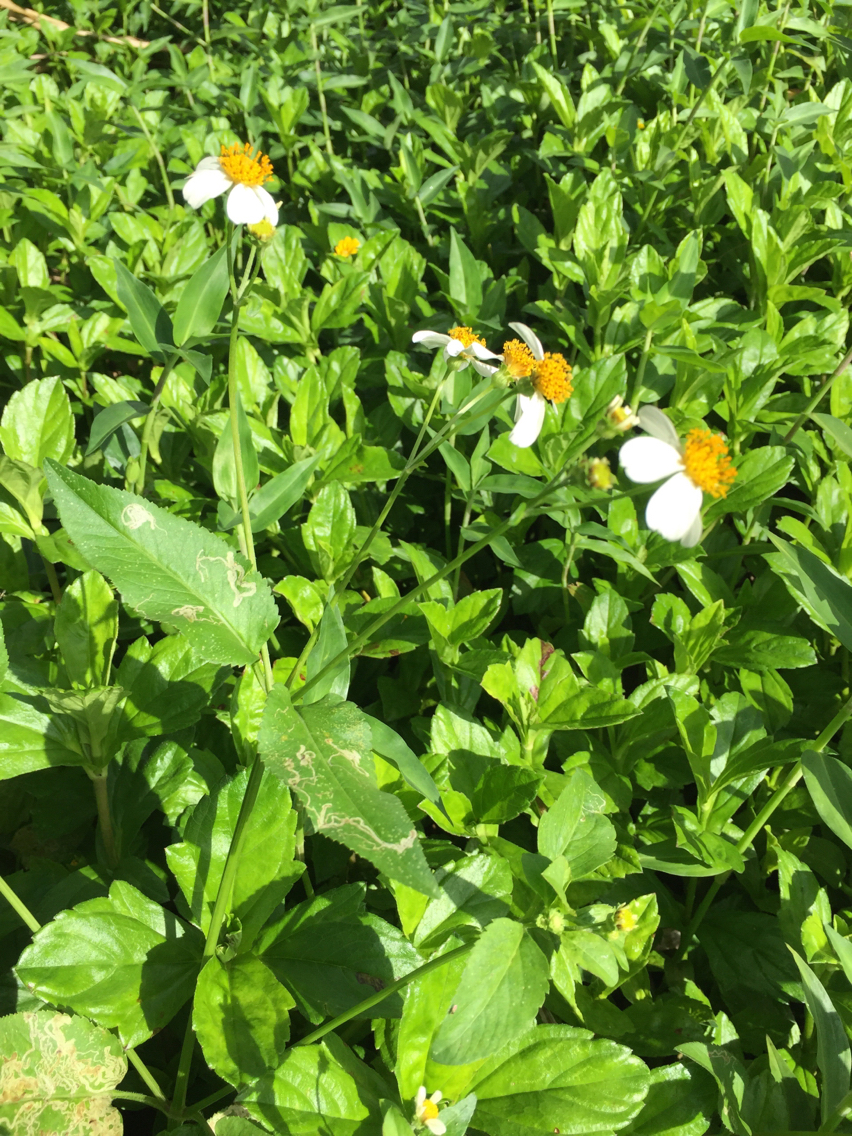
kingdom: Plantae
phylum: Tracheophyta
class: Magnoliopsida
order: Asterales
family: Asteraceae
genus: Bidens
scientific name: Bidens alba
